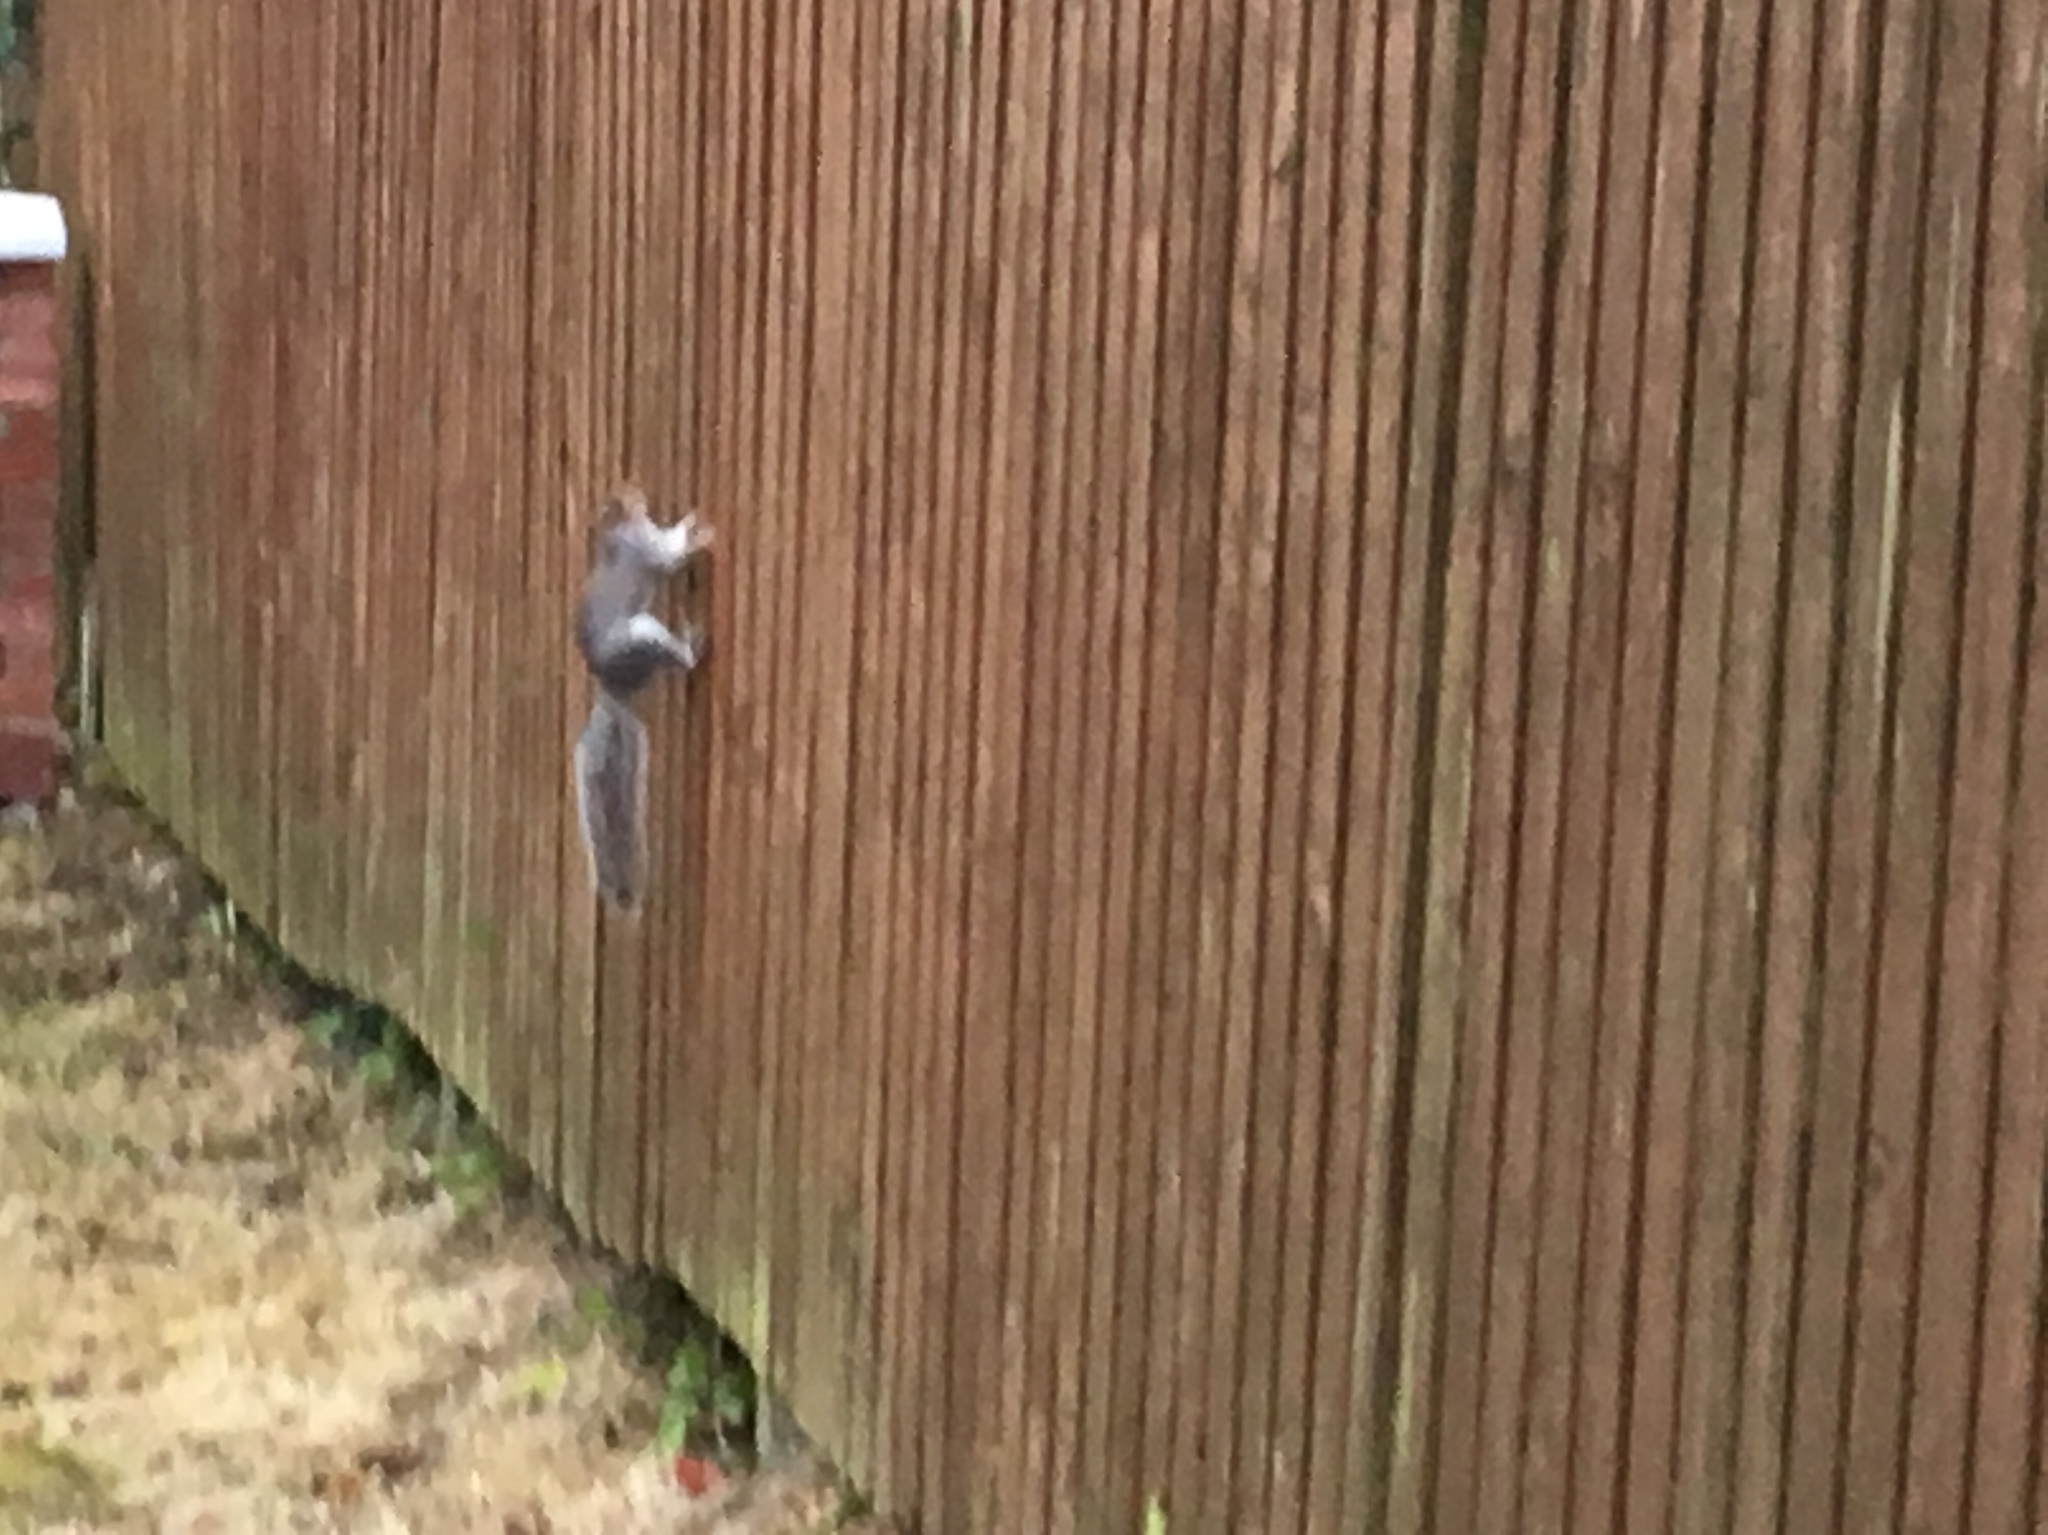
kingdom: Animalia
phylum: Chordata
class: Mammalia
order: Rodentia
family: Sciuridae
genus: Sciurus
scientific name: Sciurus carolinensis
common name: Eastern gray squirrel
